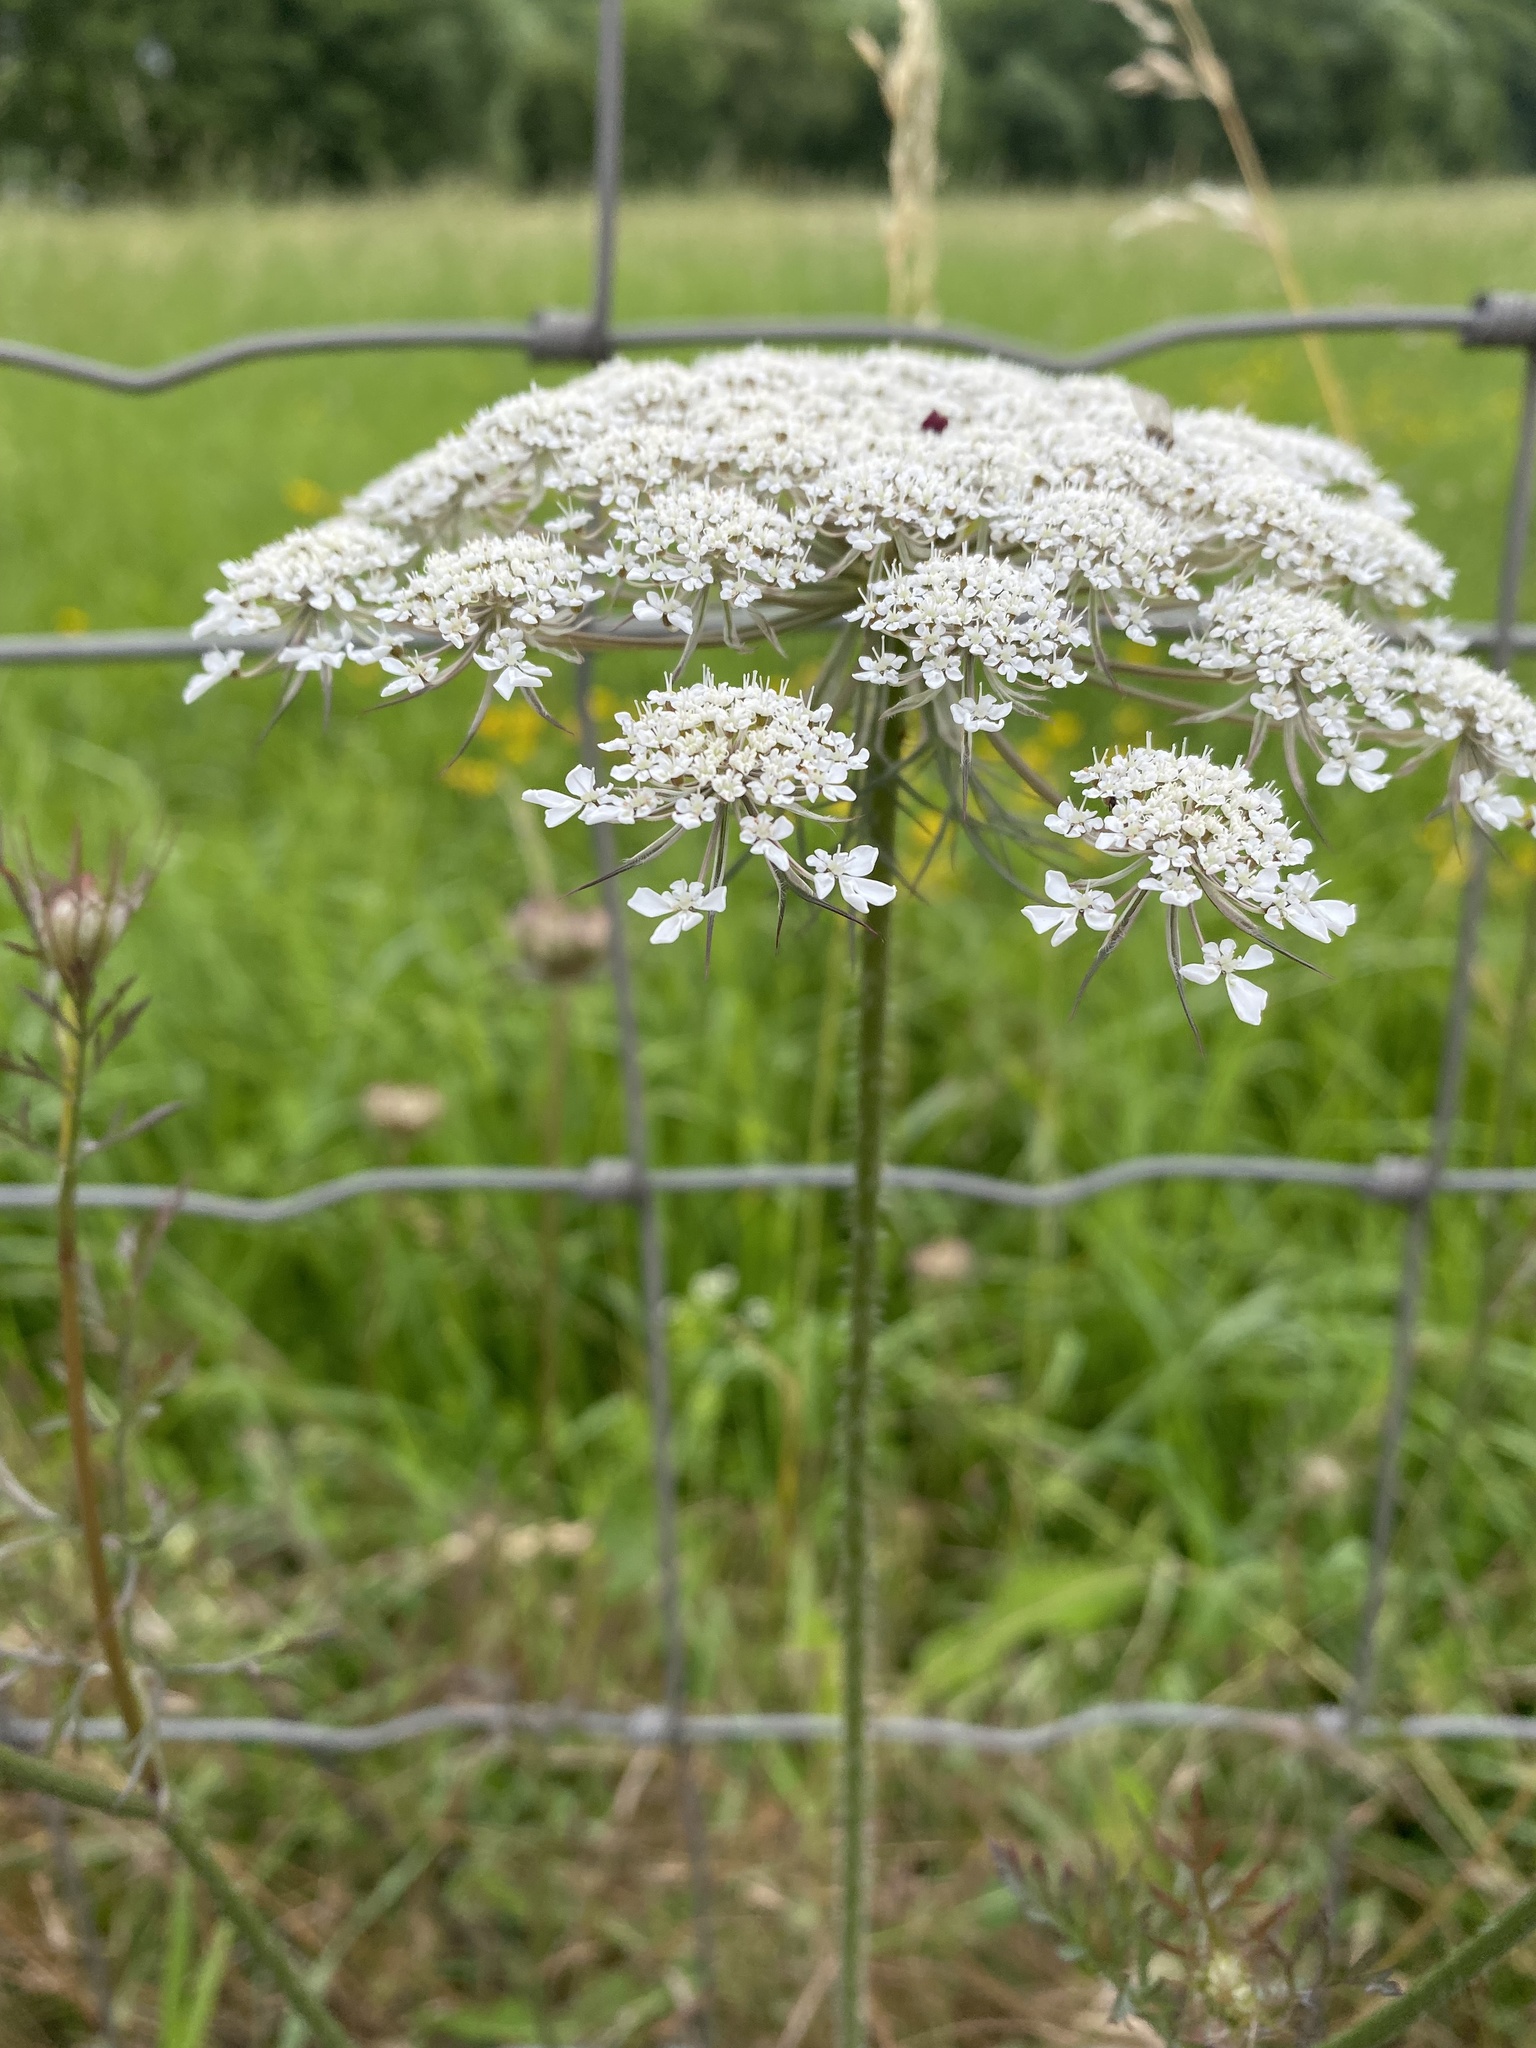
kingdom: Plantae
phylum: Tracheophyta
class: Magnoliopsida
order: Apiales
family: Apiaceae
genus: Daucus
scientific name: Daucus carota
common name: Wild carrot
